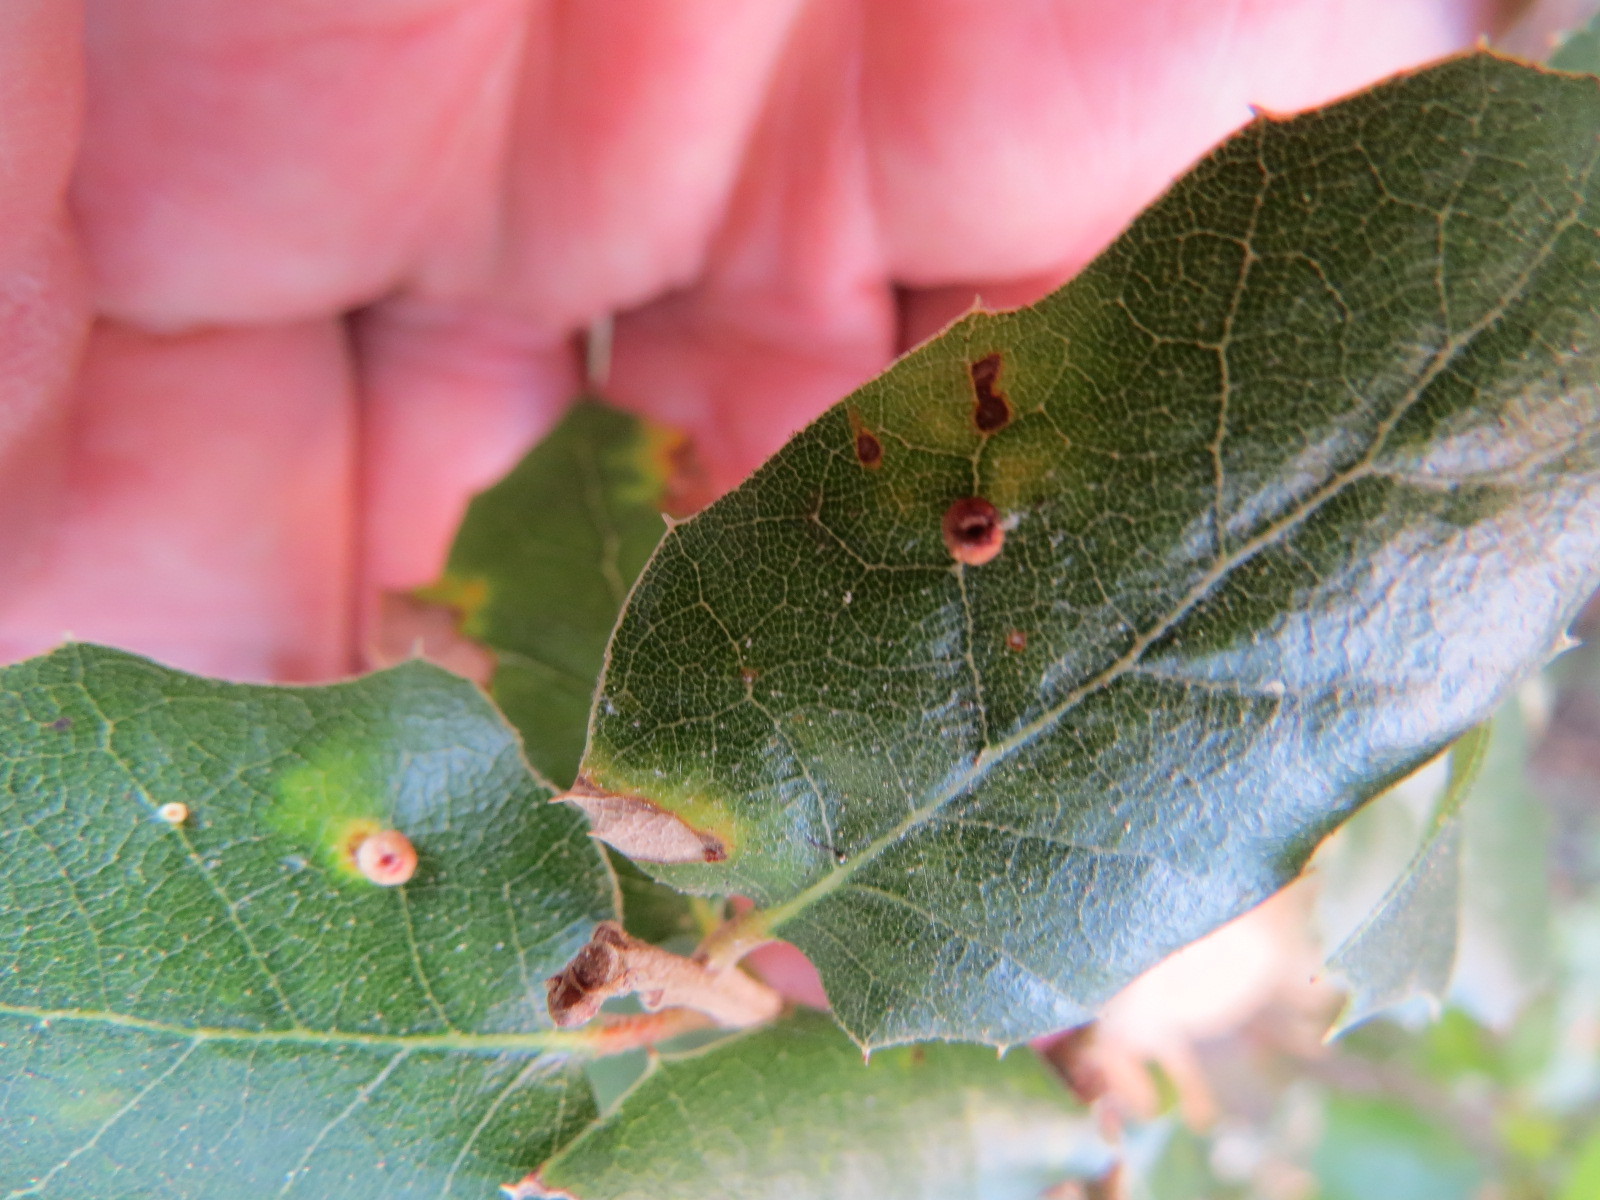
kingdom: Animalia
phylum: Arthropoda
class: Insecta
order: Hymenoptera
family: Cynipidae
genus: Dryocosmus
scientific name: Dryocosmus
